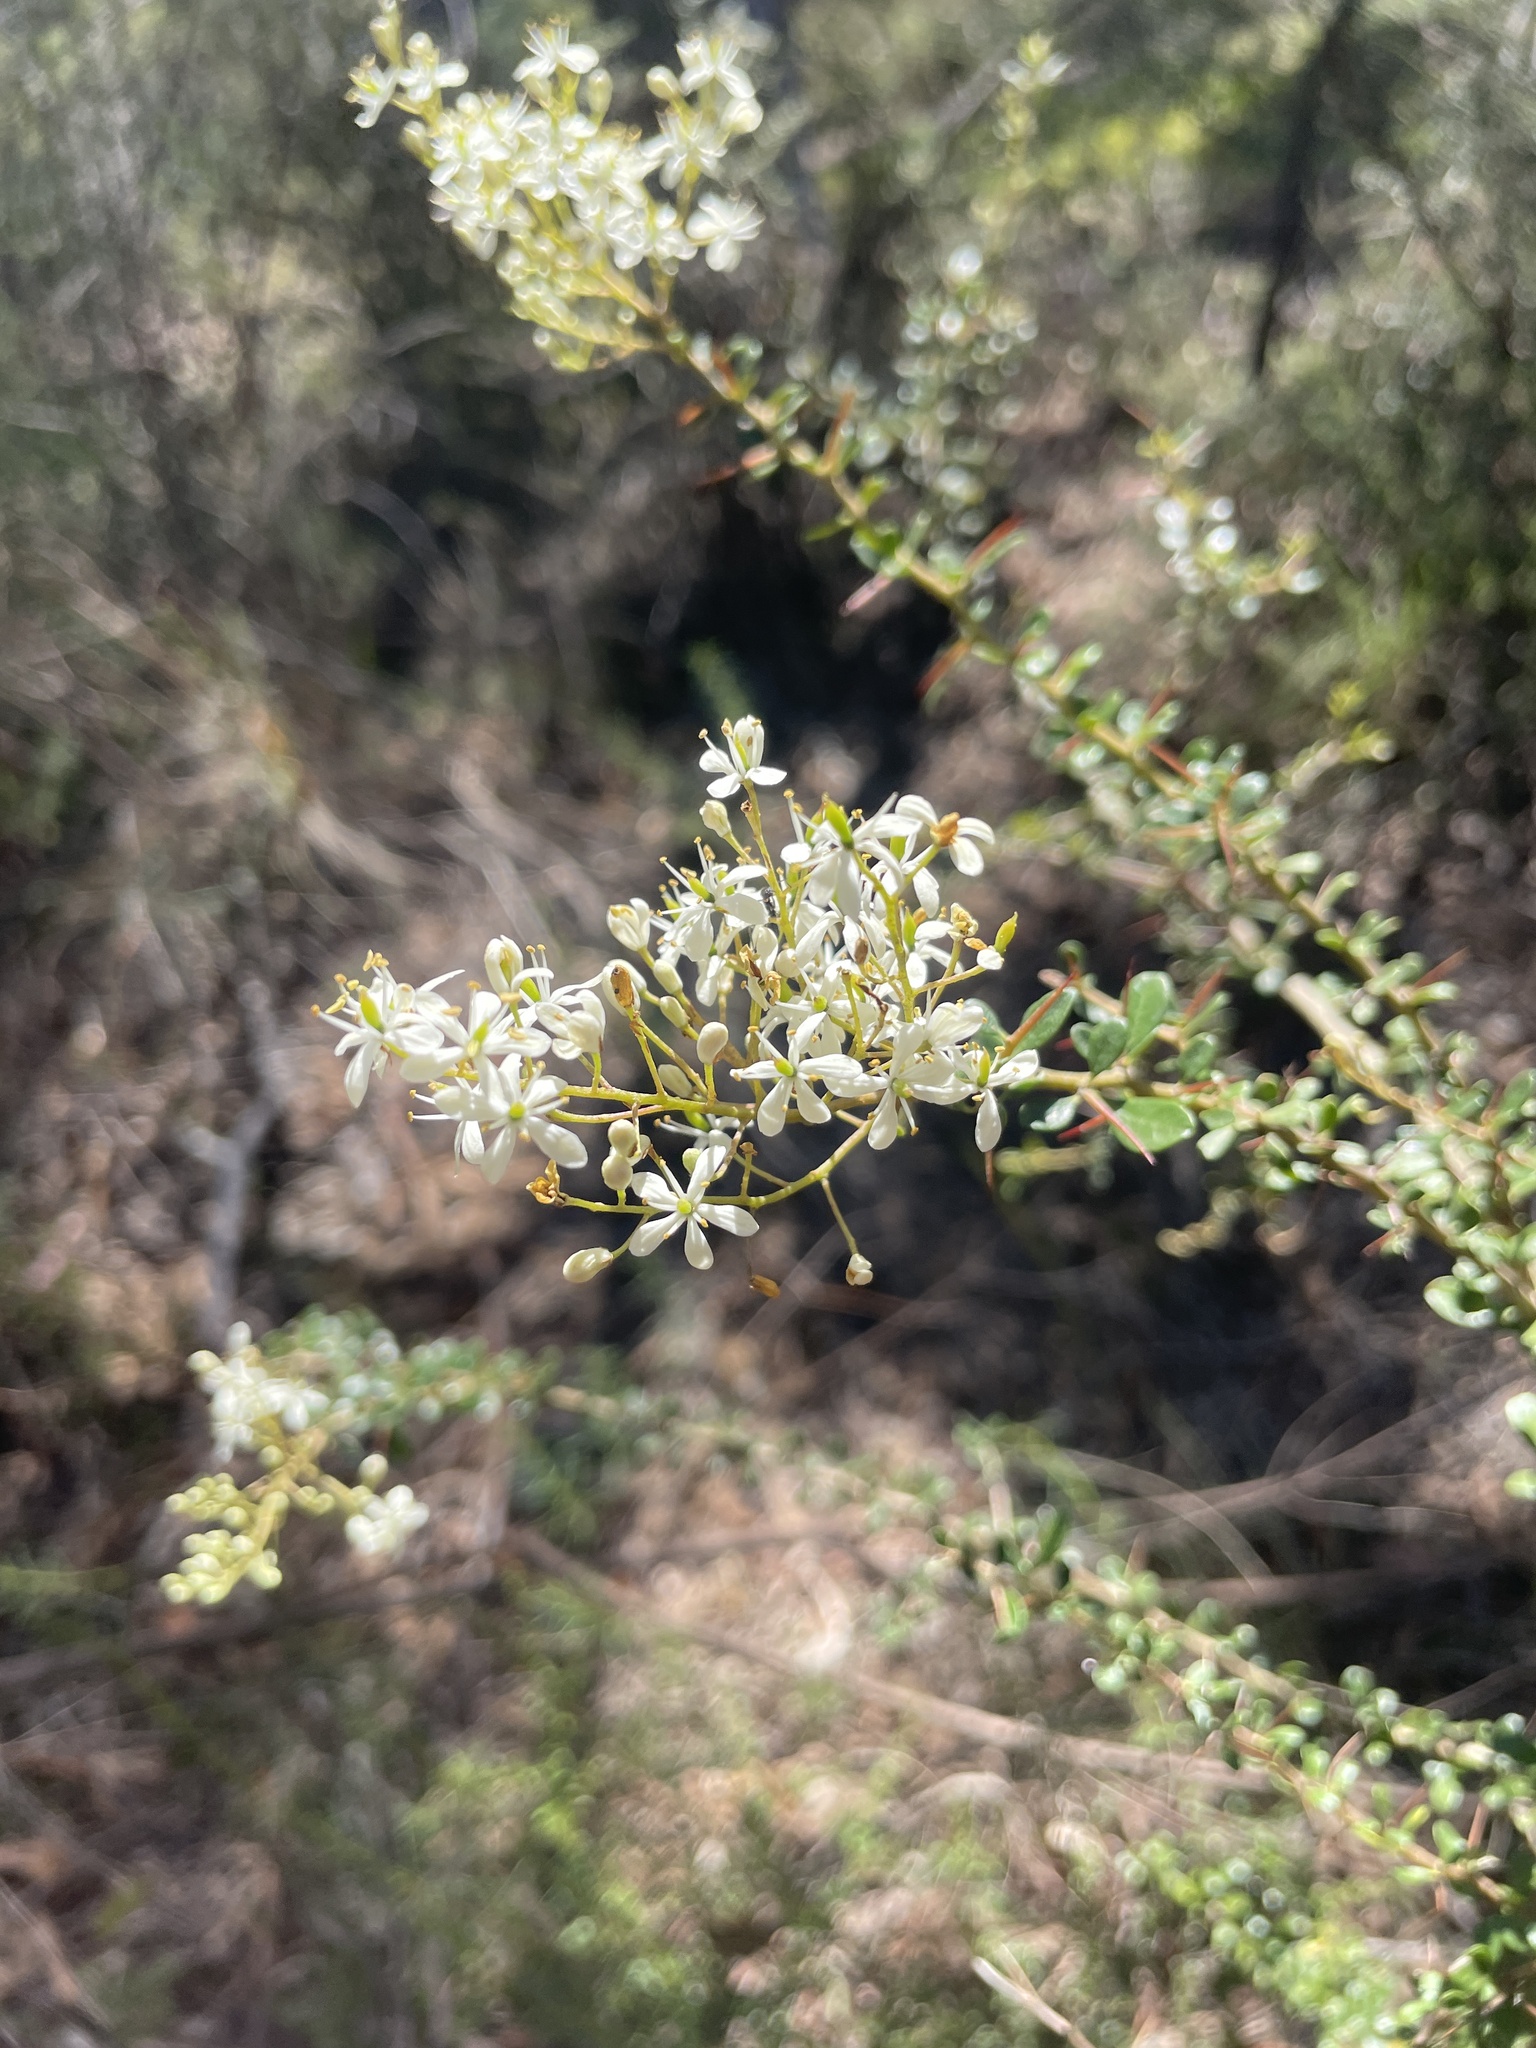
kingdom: Plantae
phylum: Tracheophyta
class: Magnoliopsida
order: Apiales
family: Pittosporaceae
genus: Bursaria
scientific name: Bursaria spinosa
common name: Australian blackthorn
